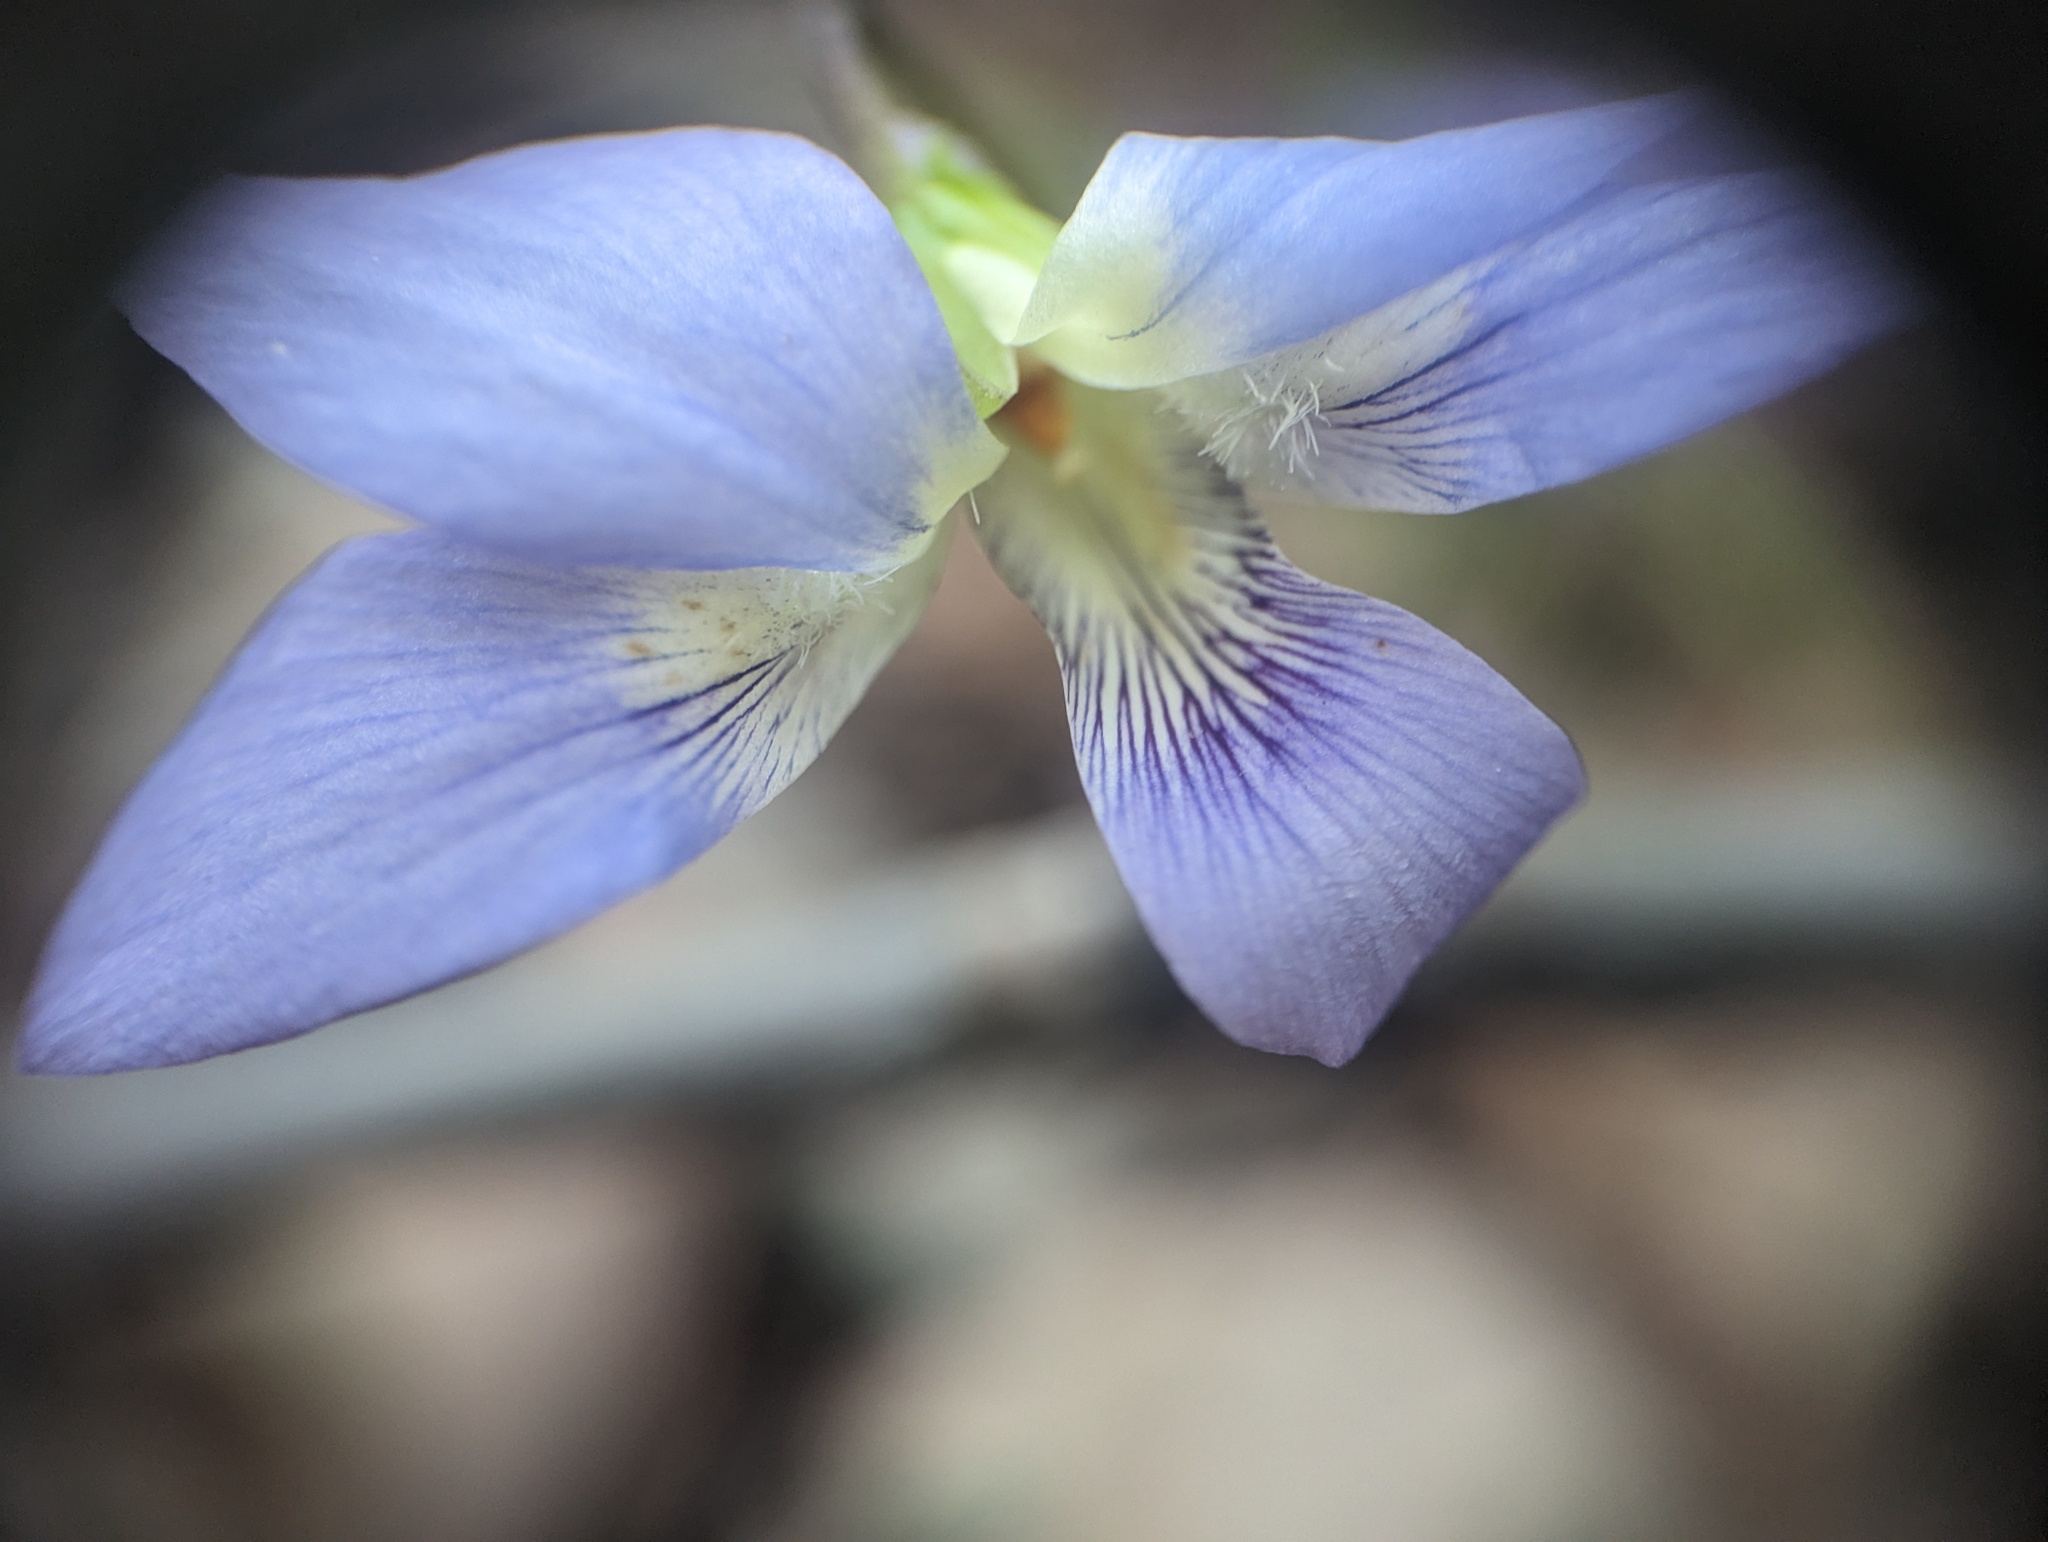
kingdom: Plantae
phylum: Tracheophyta
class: Magnoliopsida
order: Malpighiales
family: Violaceae
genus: Viola
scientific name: Viola palmata
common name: Early blue violet
